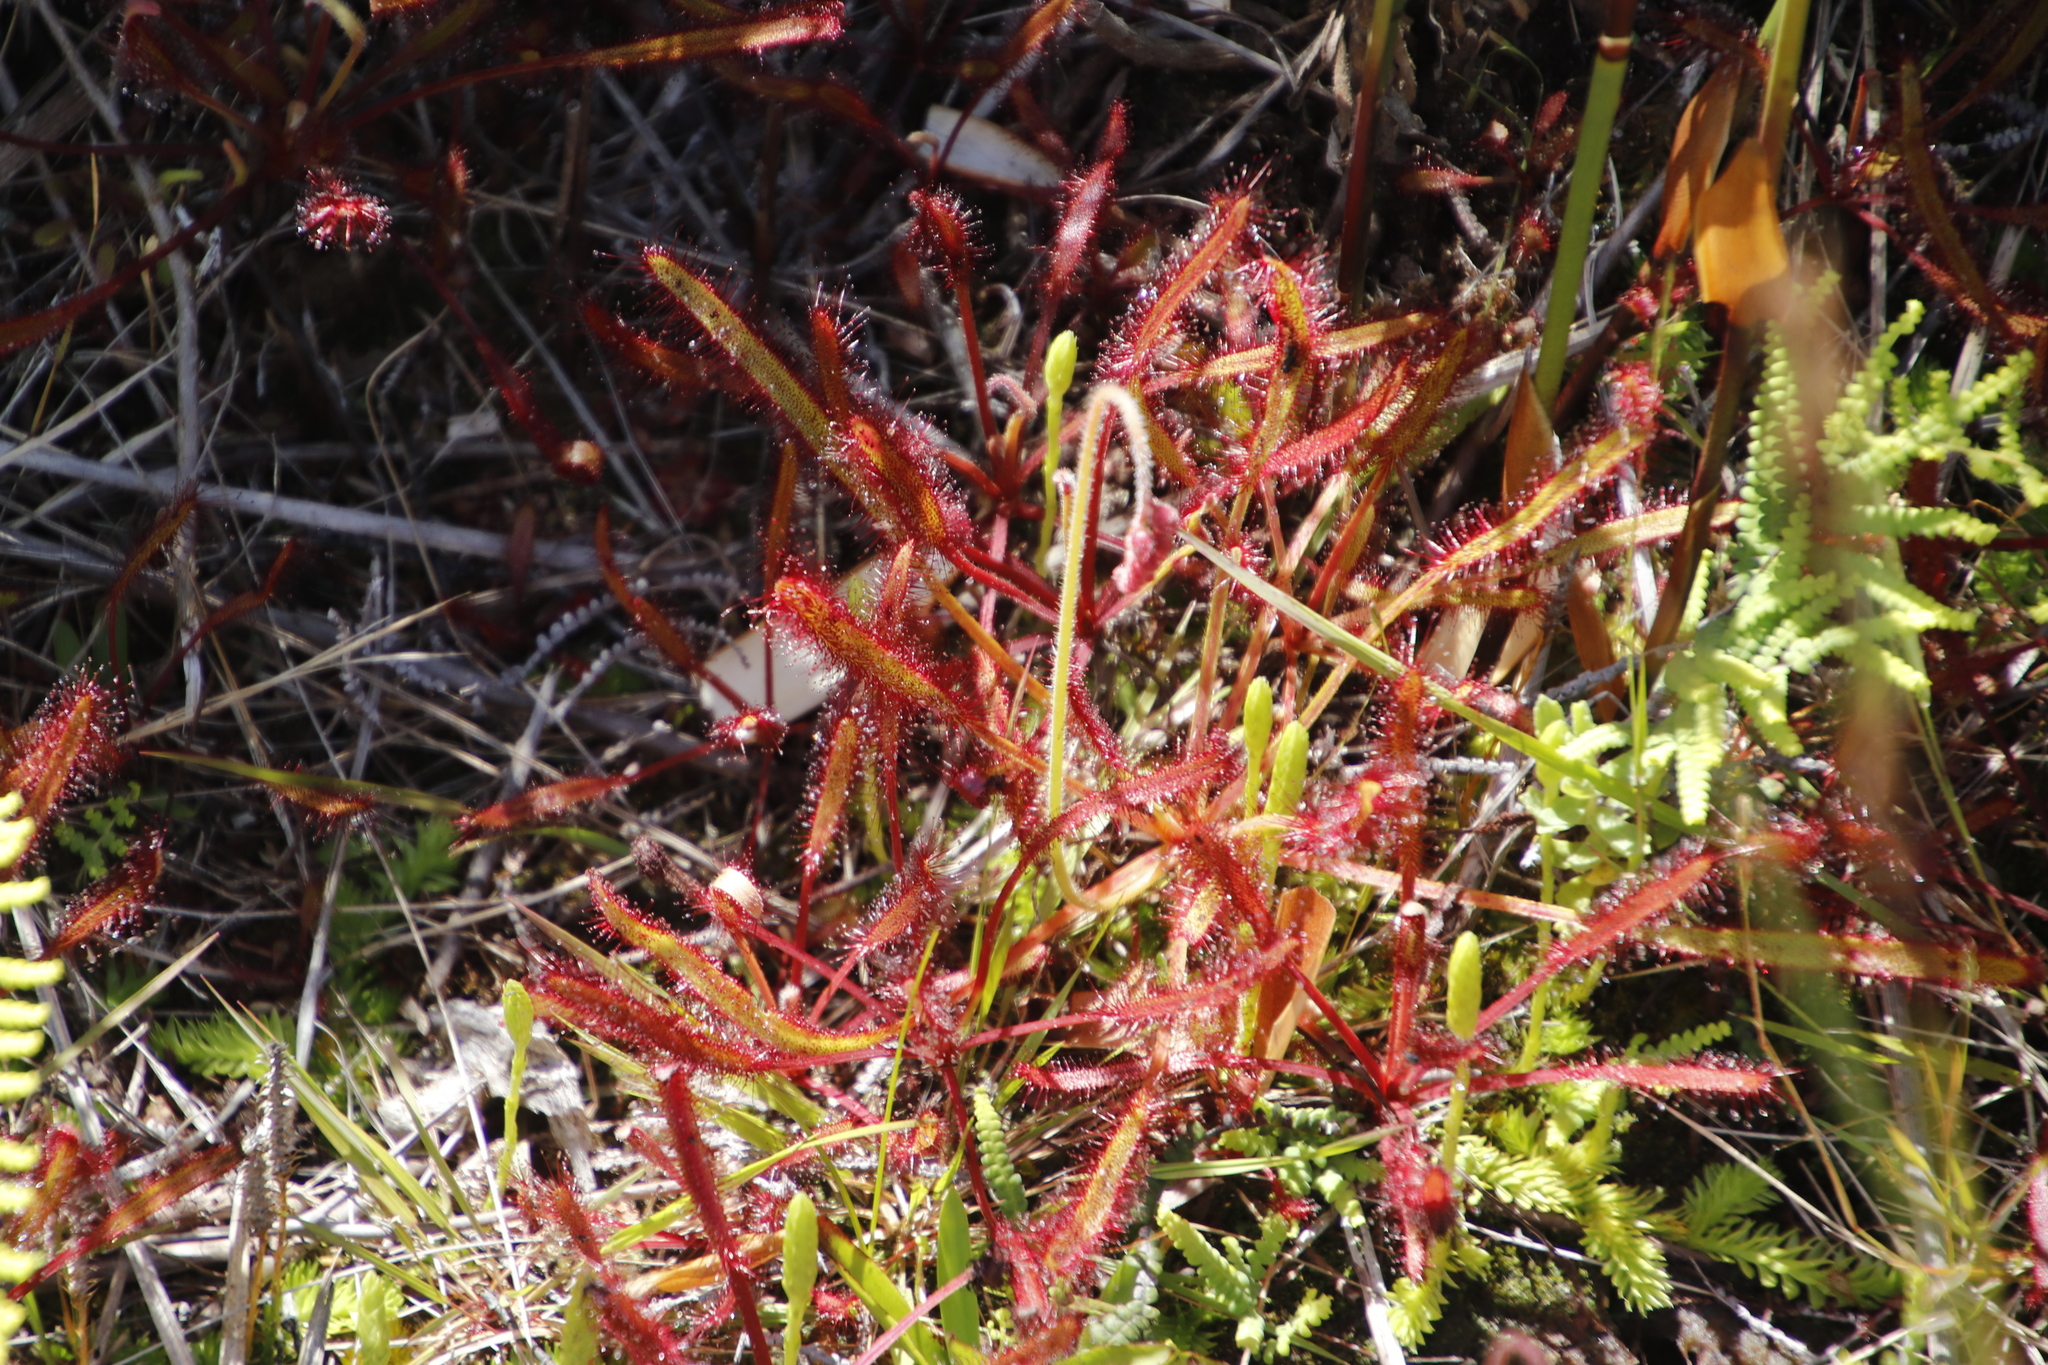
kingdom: Plantae
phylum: Tracheophyta
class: Magnoliopsida
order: Caryophyllales
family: Droseraceae
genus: Drosera
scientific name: Drosera capensis
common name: Cape sundew
